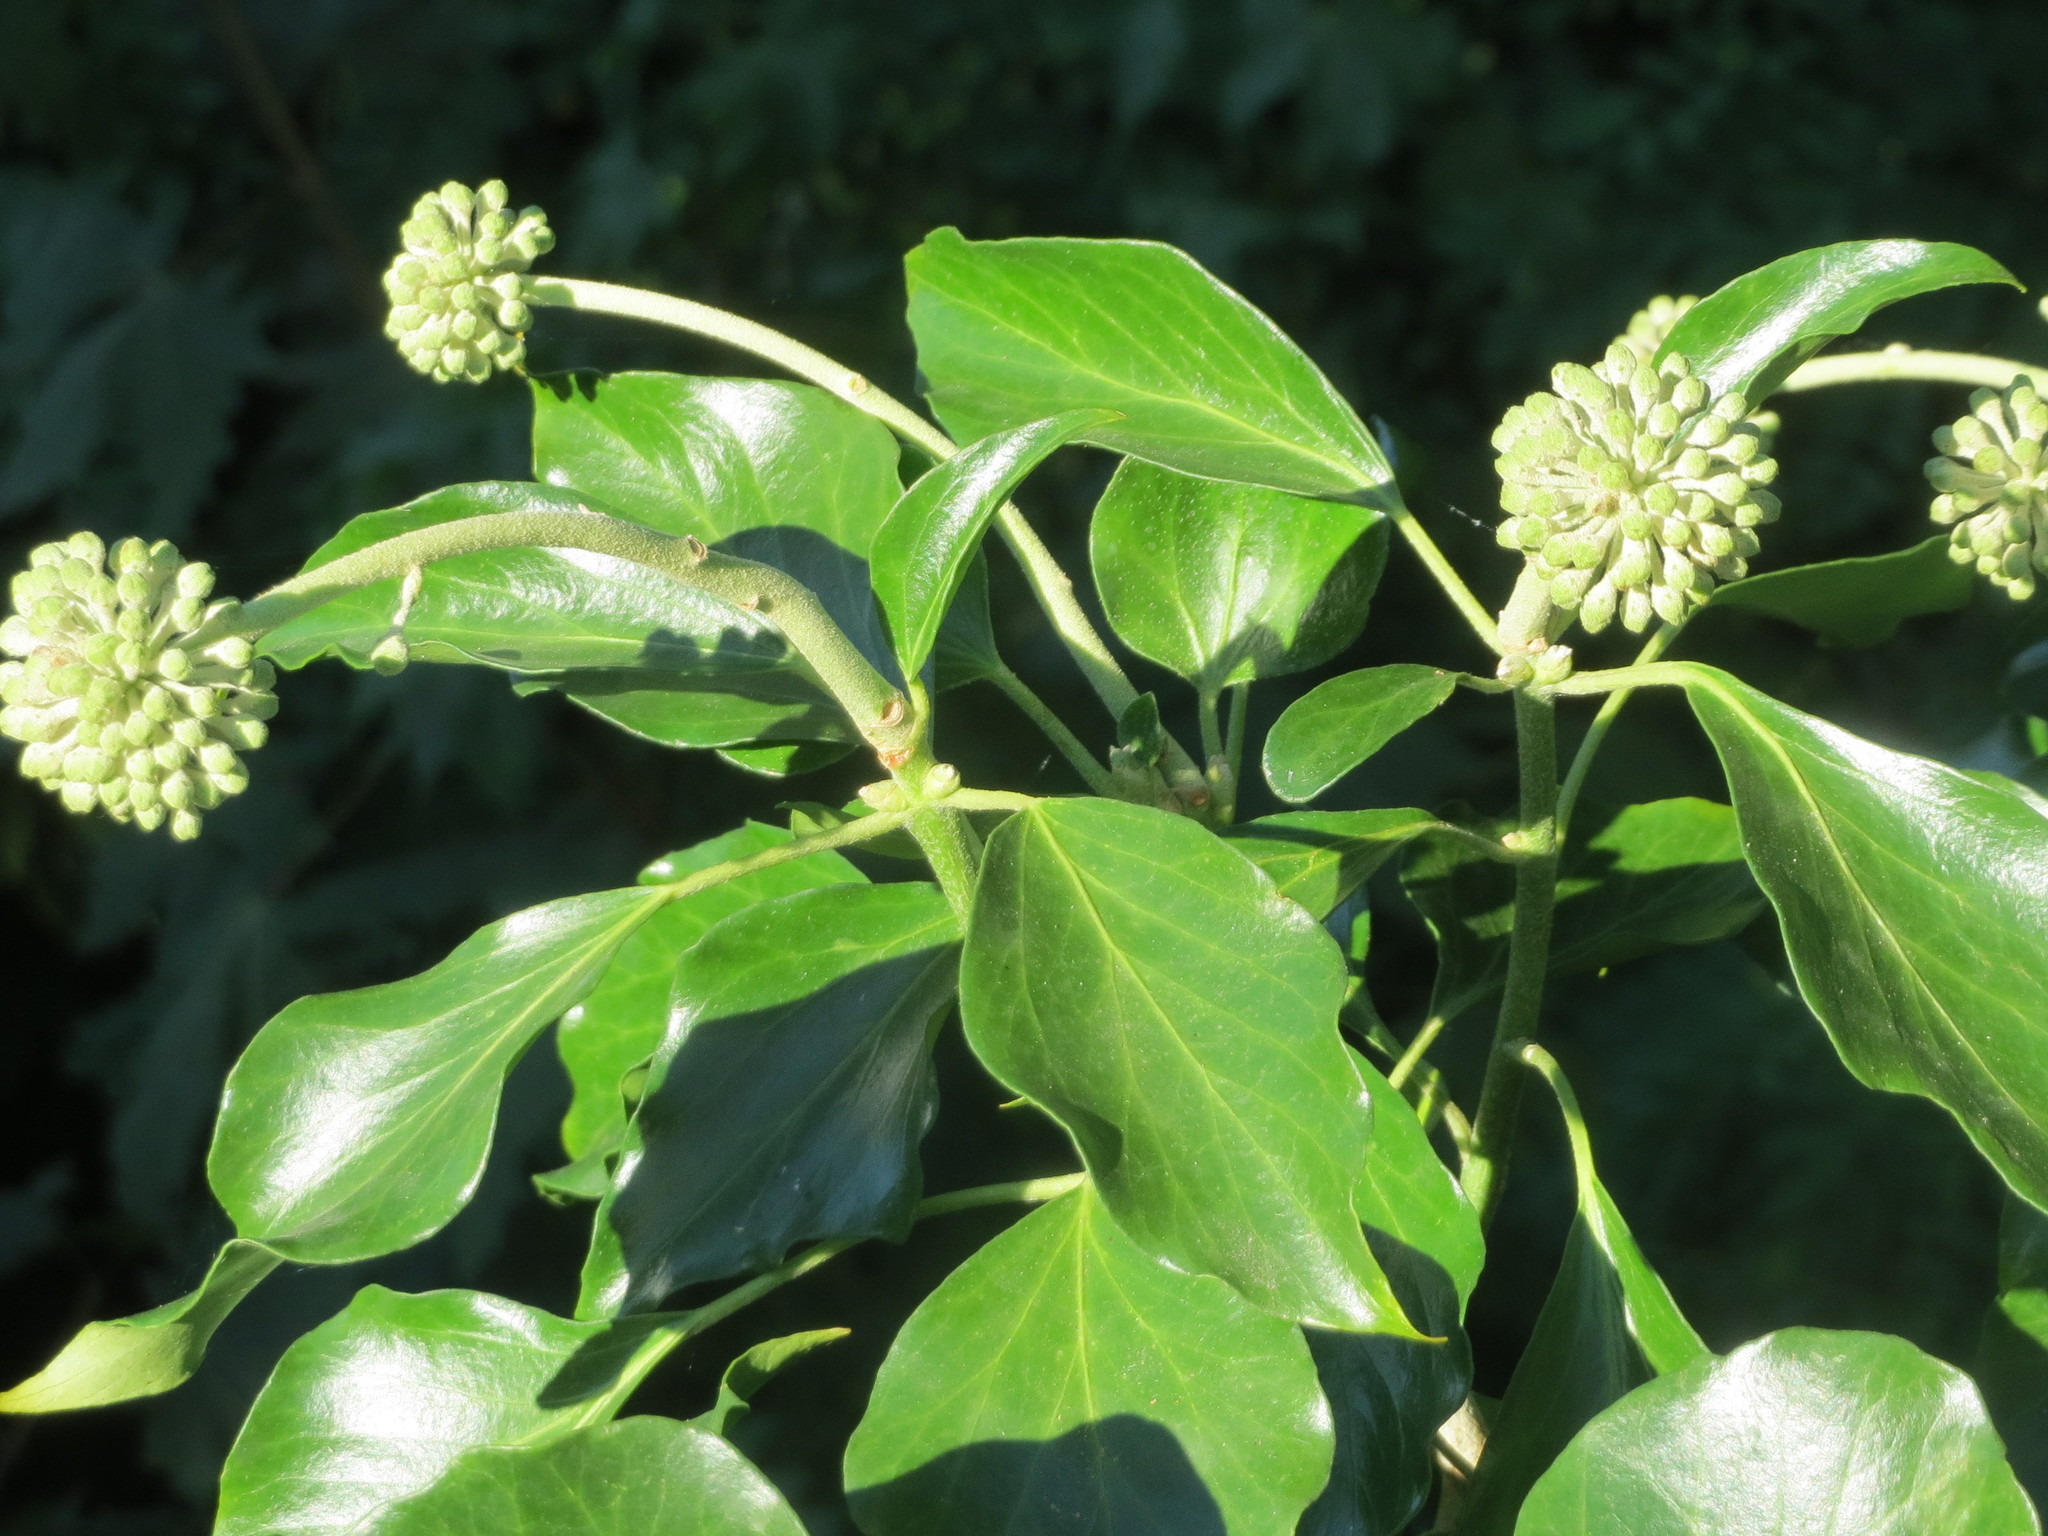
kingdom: Plantae
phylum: Tracheophyta
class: Magnoliopsida
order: Apiales
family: Araliaceae
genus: Hedera
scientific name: Hedera helix
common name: Ivy
